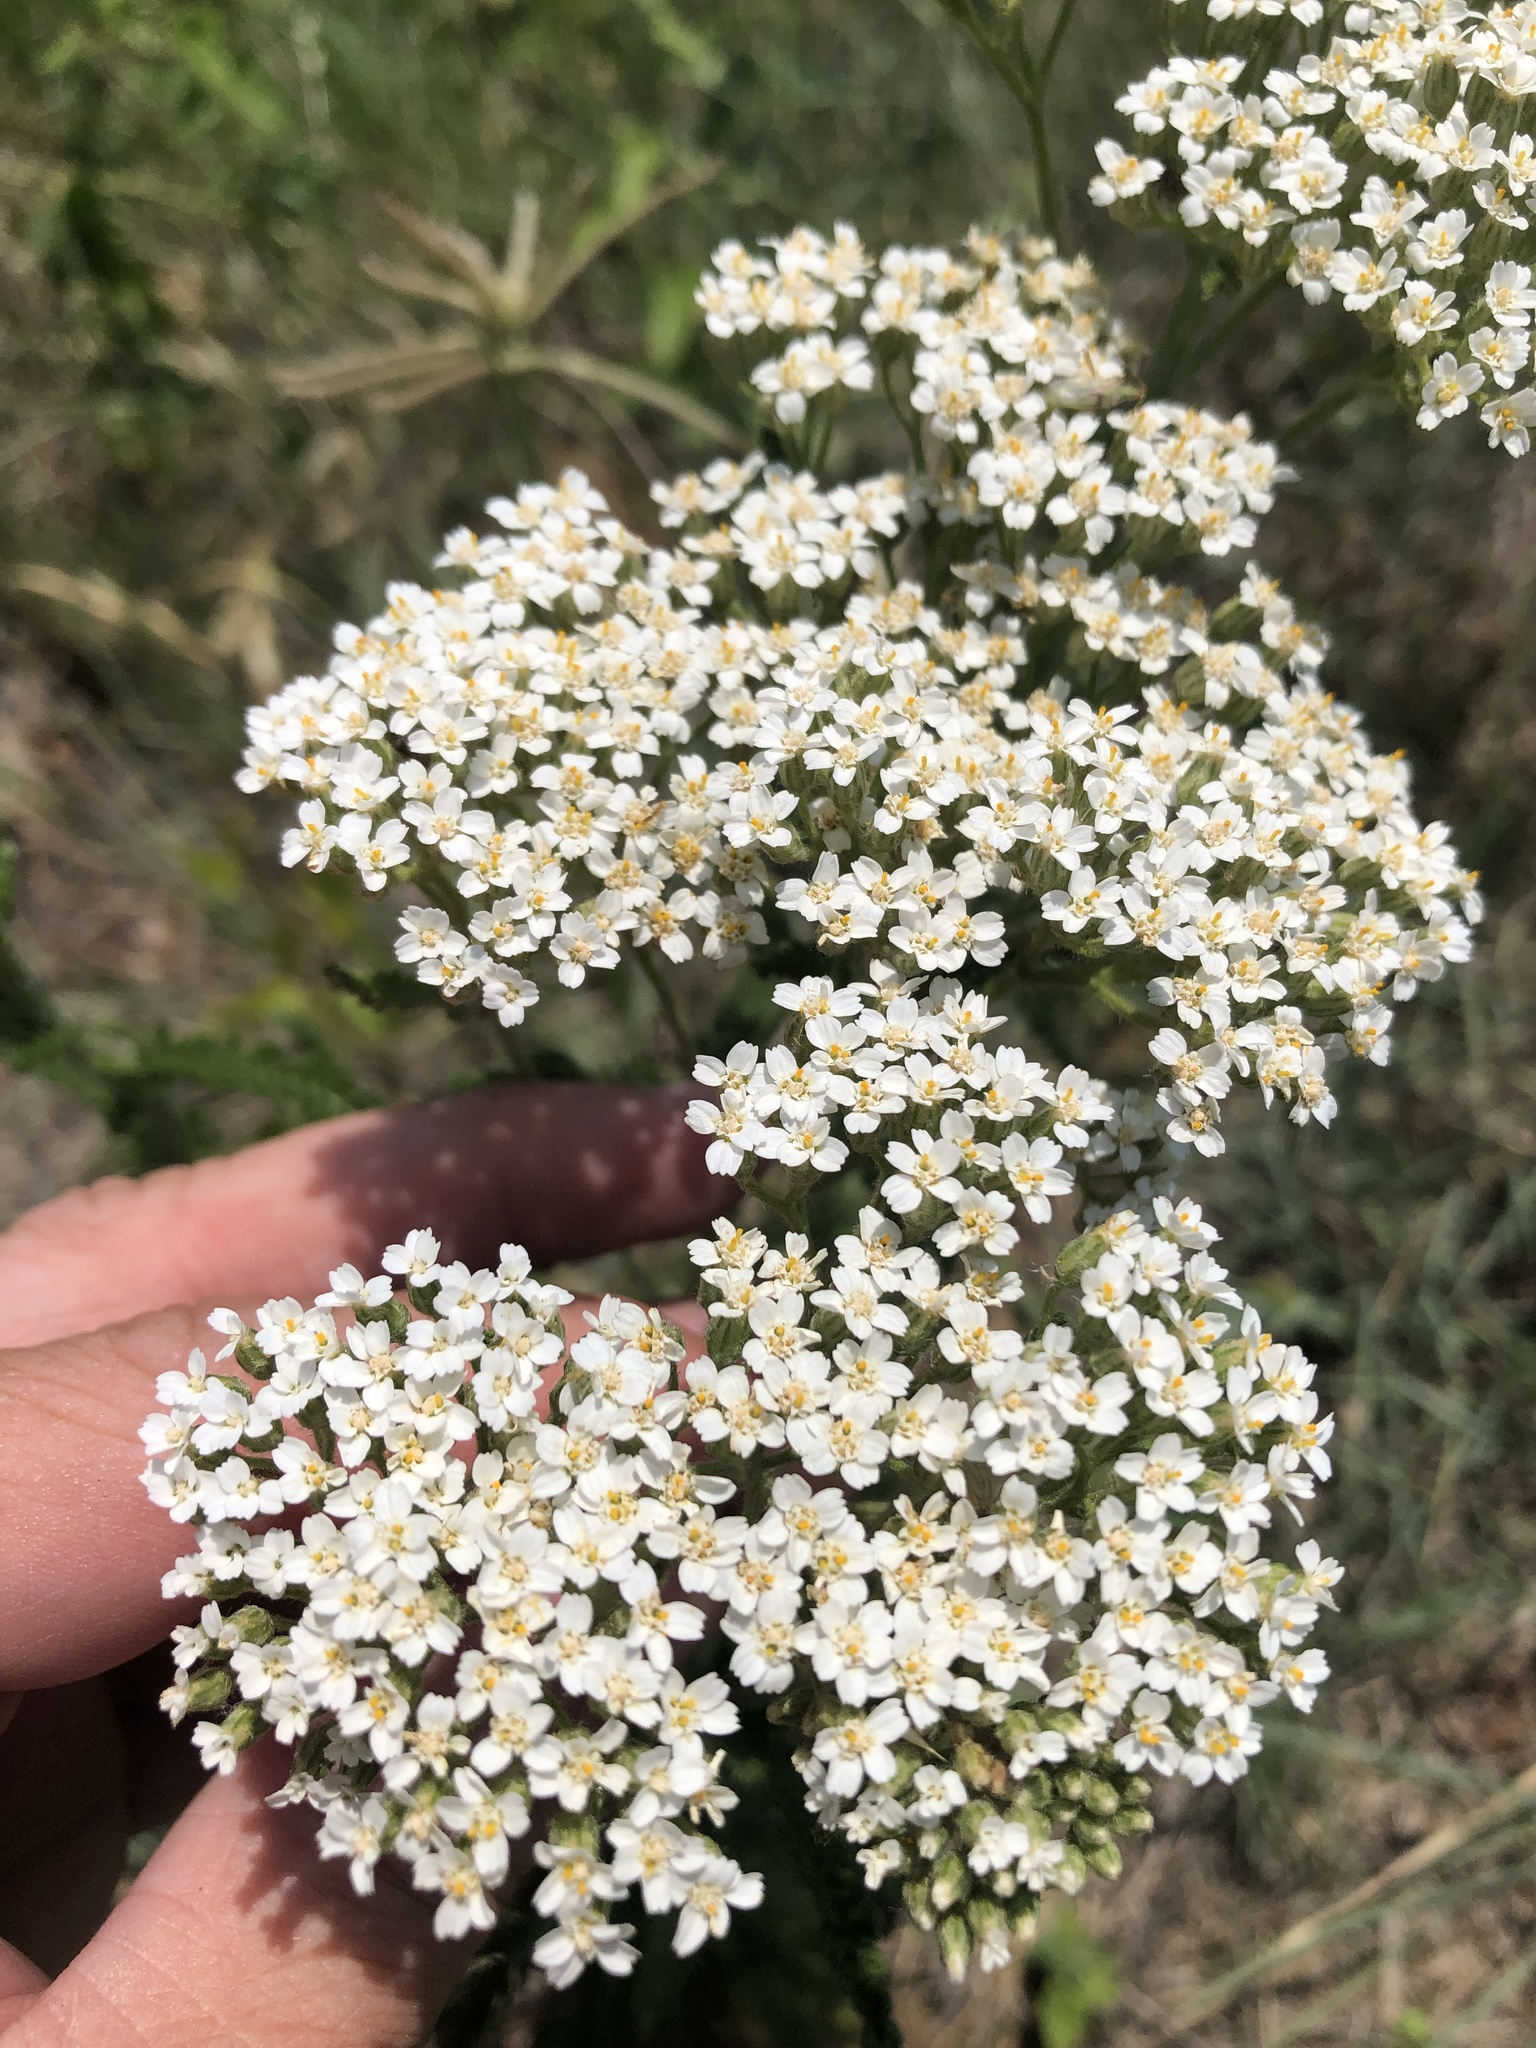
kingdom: Plantae
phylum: Tracheophyta
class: Magnoliopsida
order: Asterales
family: Asteraceae
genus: Achillea
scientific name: Achillea millefolium
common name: Yarrow
